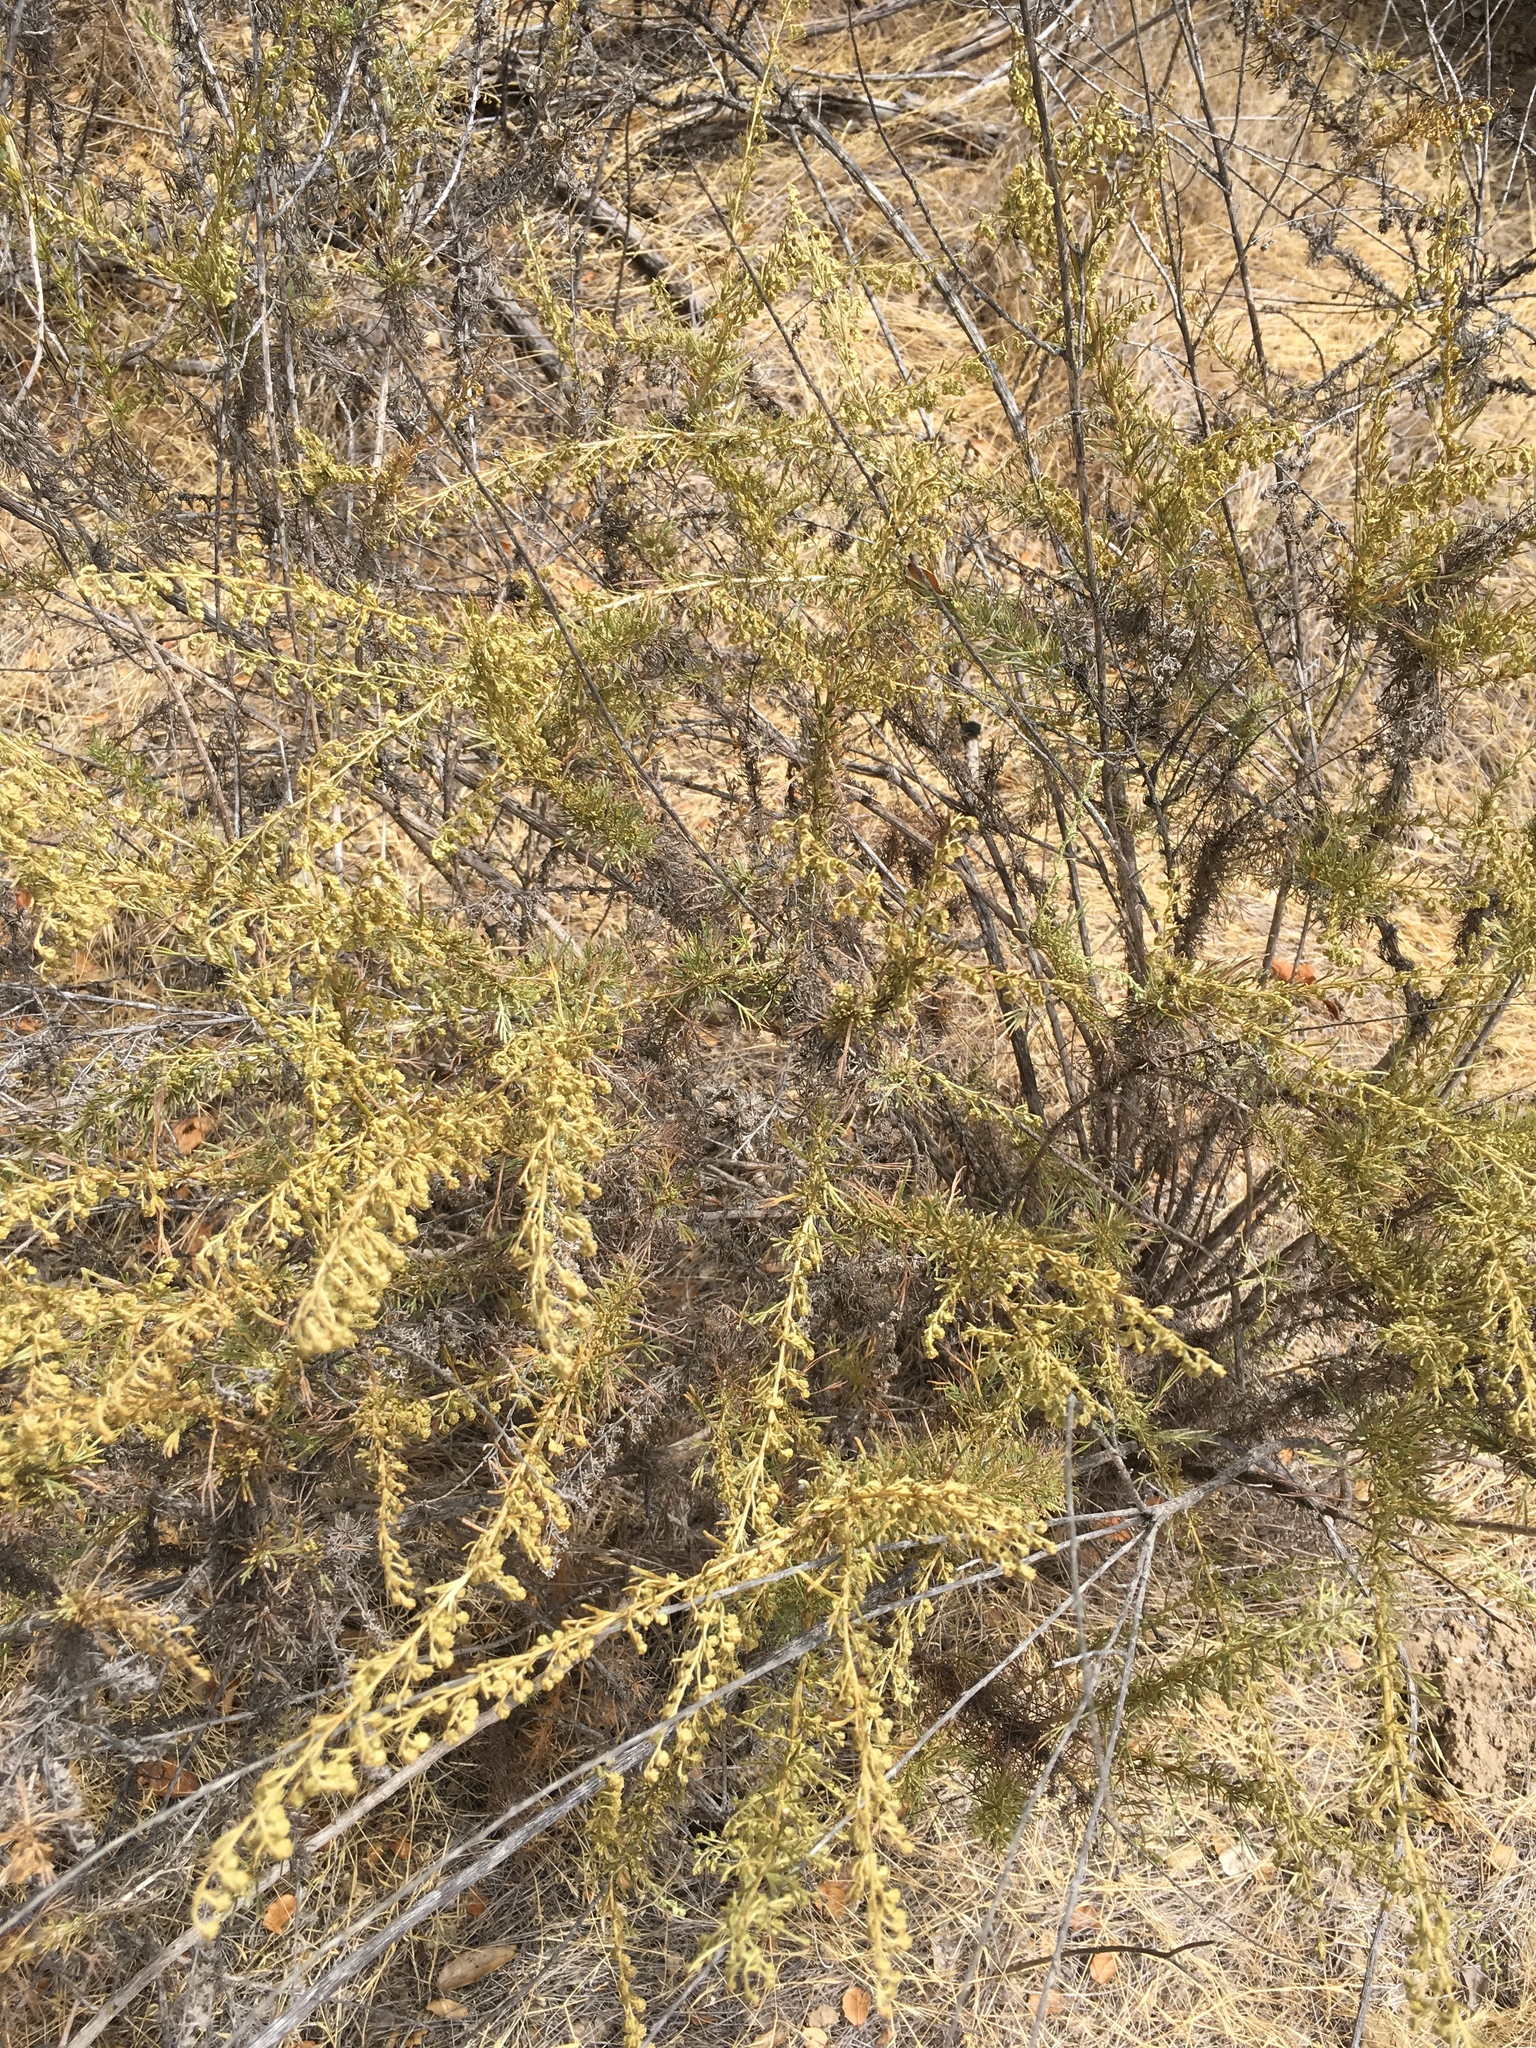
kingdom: Plantae
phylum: Tracheophyta
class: Magnoliopsida
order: Asterales
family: Asteraceae
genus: Artemisia
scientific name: Artemisia californica
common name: California sagebrush
